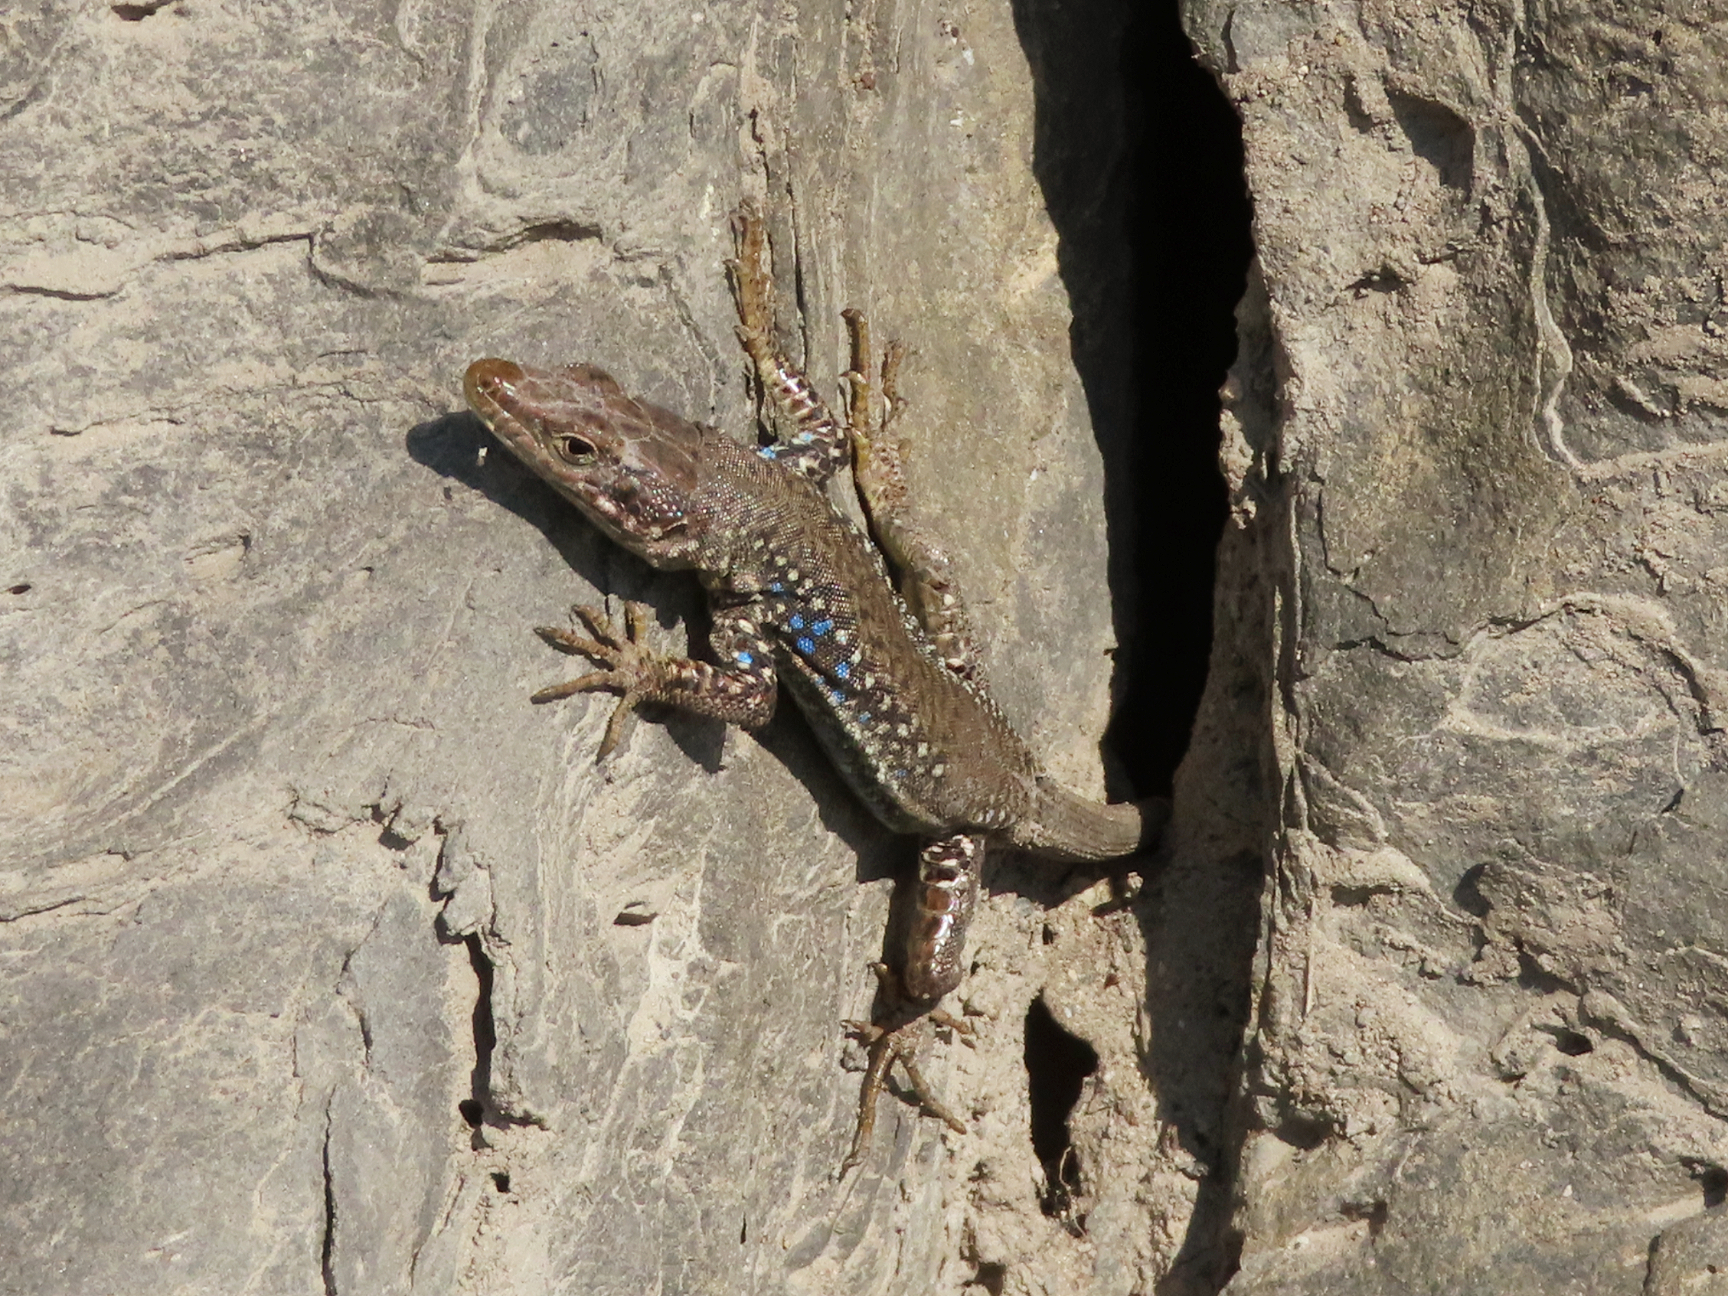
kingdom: Animalia
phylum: Chordata
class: Squamata
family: Lacertidae
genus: Darevskia
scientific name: Darevskia
